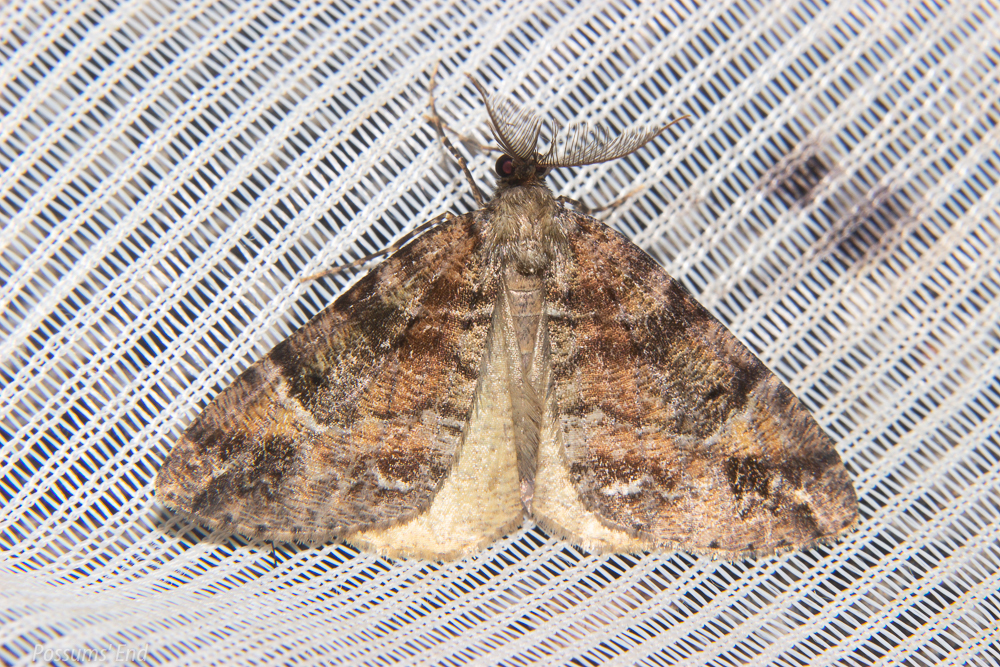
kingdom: Animalia
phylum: Arthropoda
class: Insecta
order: Lepidoptera
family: Geometridae
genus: Pseudocoremia
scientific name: Pseudocoremia productata
